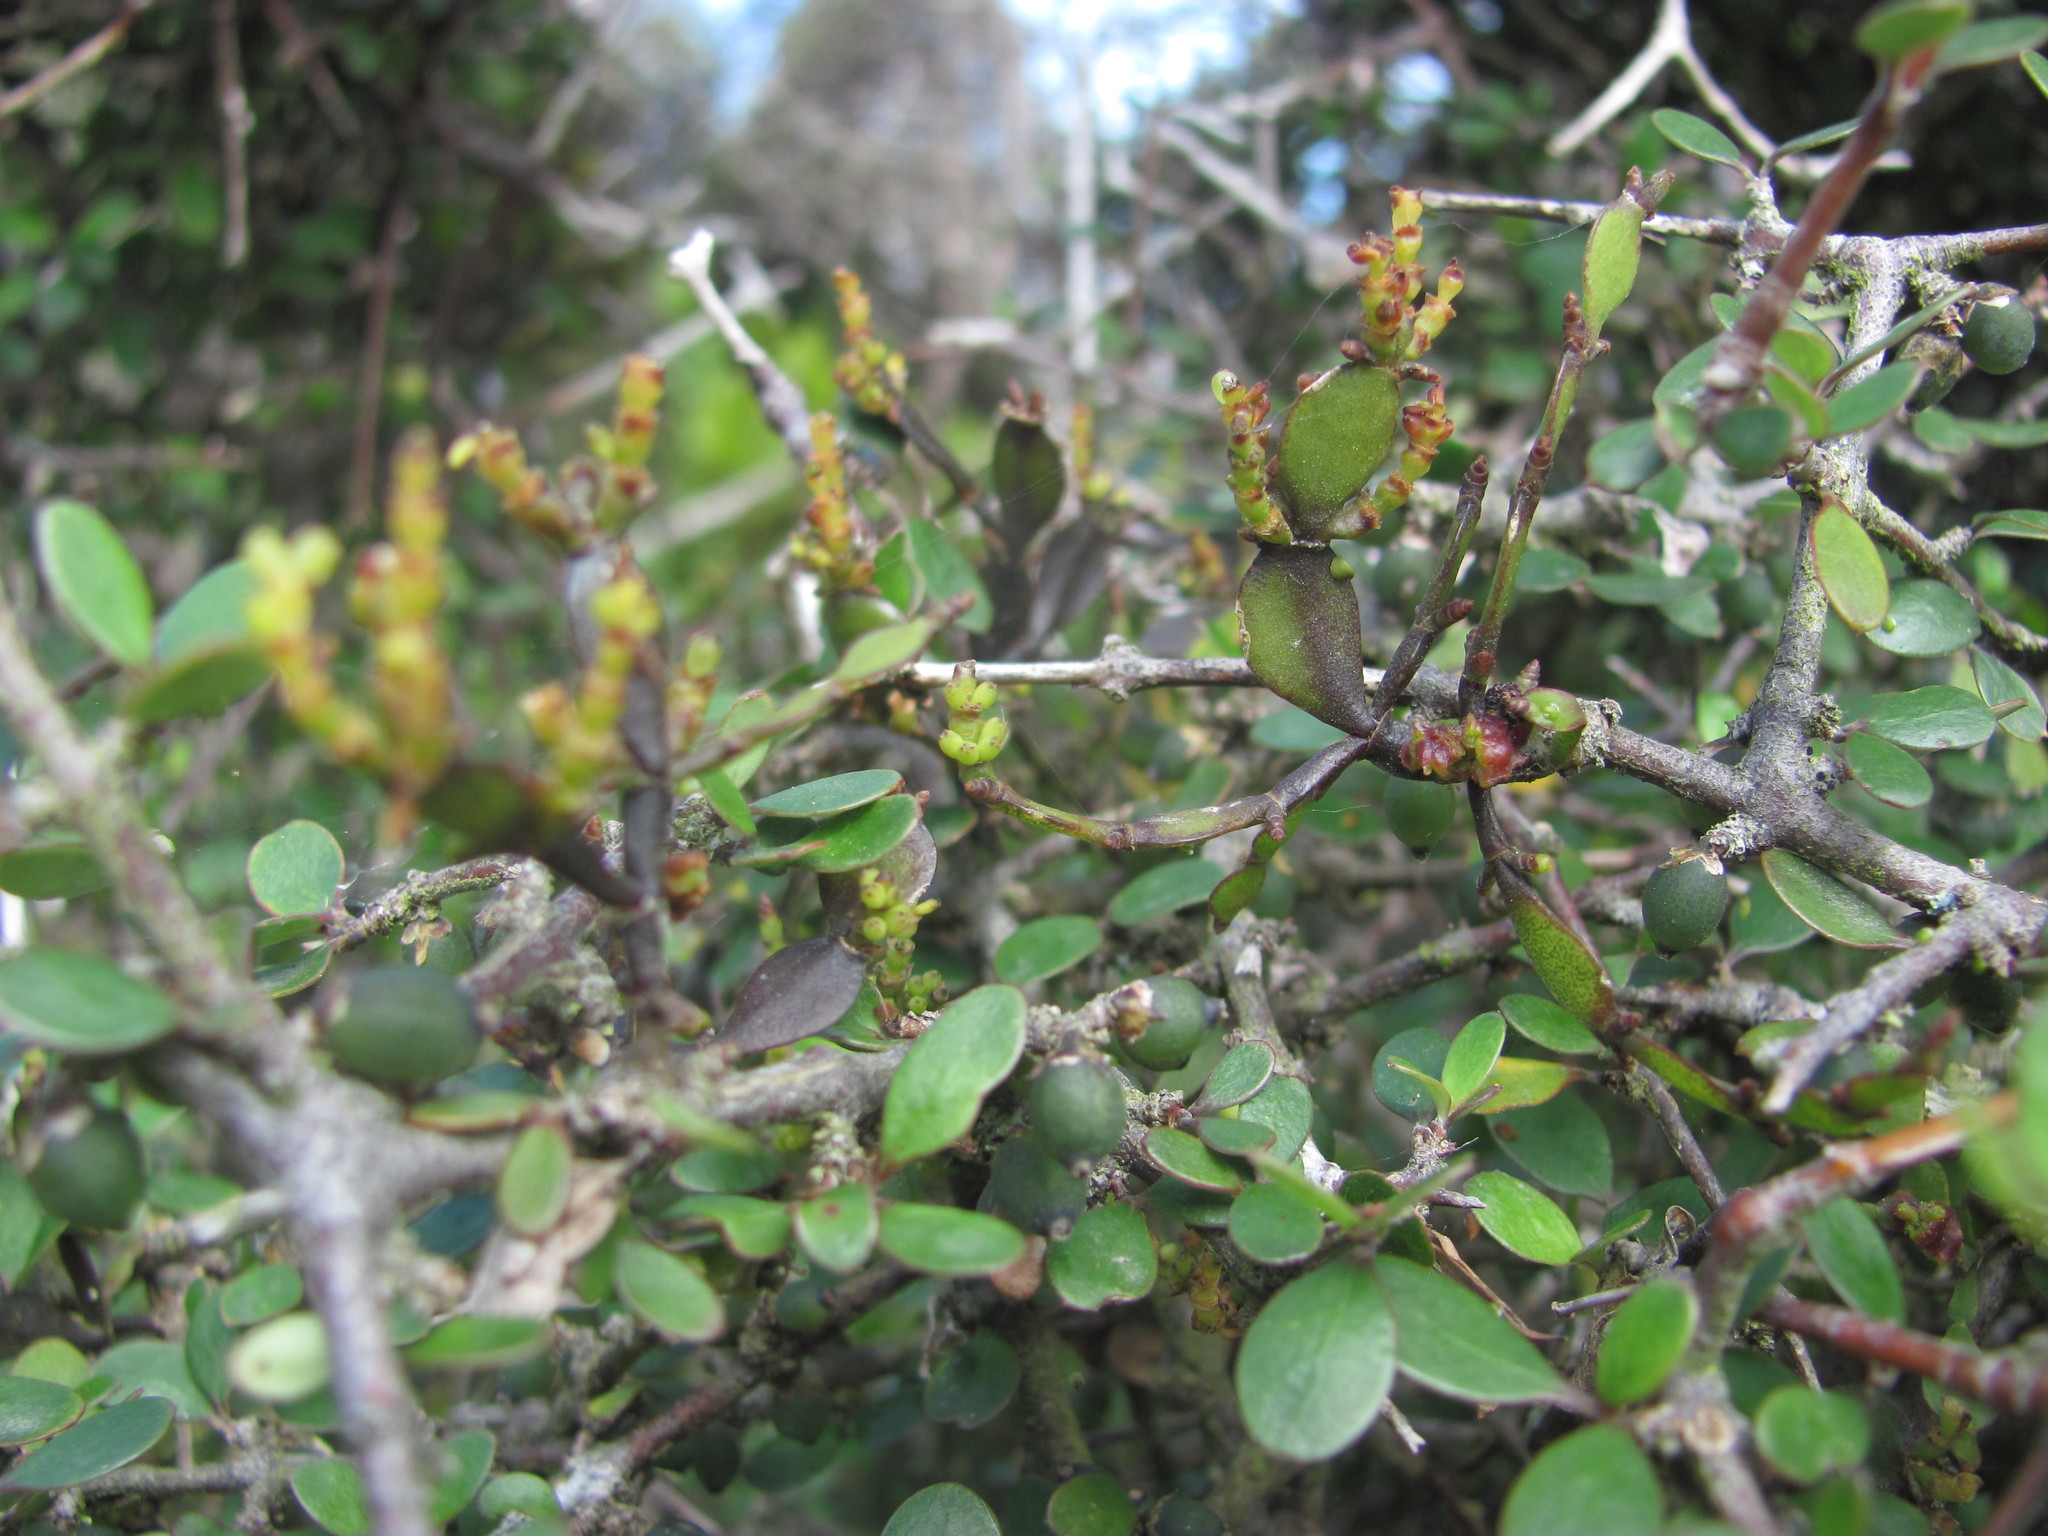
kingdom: Plantae
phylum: Tracheophyta
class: Magnoliopsida
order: Santalales
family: Viscaceae
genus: Korthalsella
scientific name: Korthalsella lindsayi
